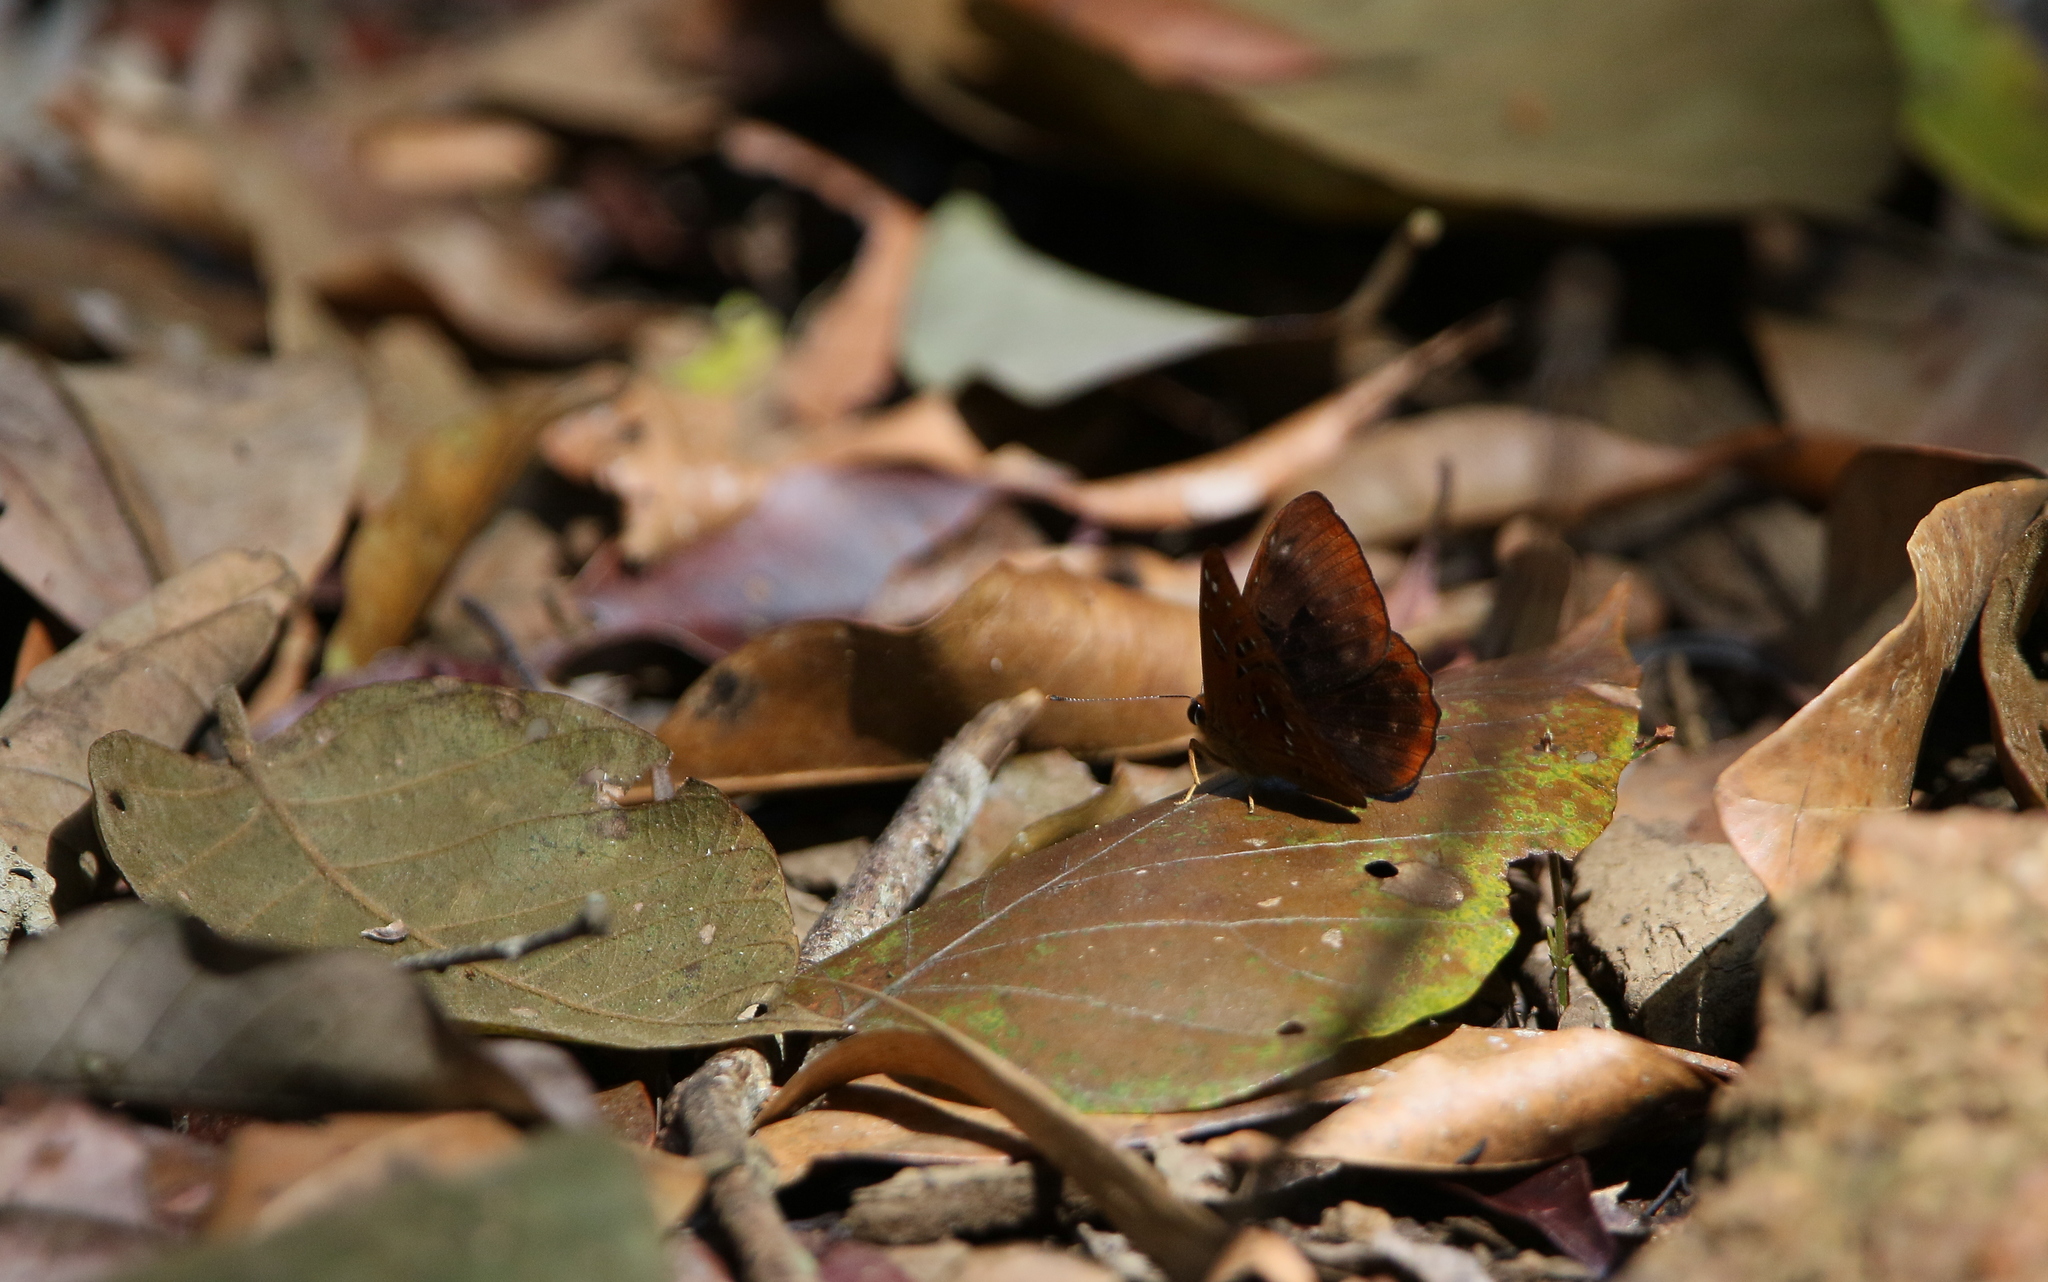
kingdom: Animalia
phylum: Arthropoda
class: Insecta
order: Lepidoptera
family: Erebidae
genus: Dysschema
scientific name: Dysschema
